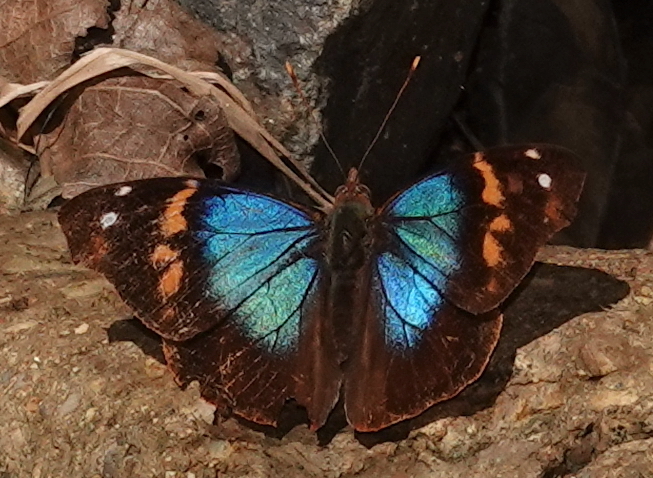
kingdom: Animalia
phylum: Arthropoda
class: Insecta
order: Lepidoptera
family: Nymphalidae
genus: Epiphile
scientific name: Epiphile epimenes
